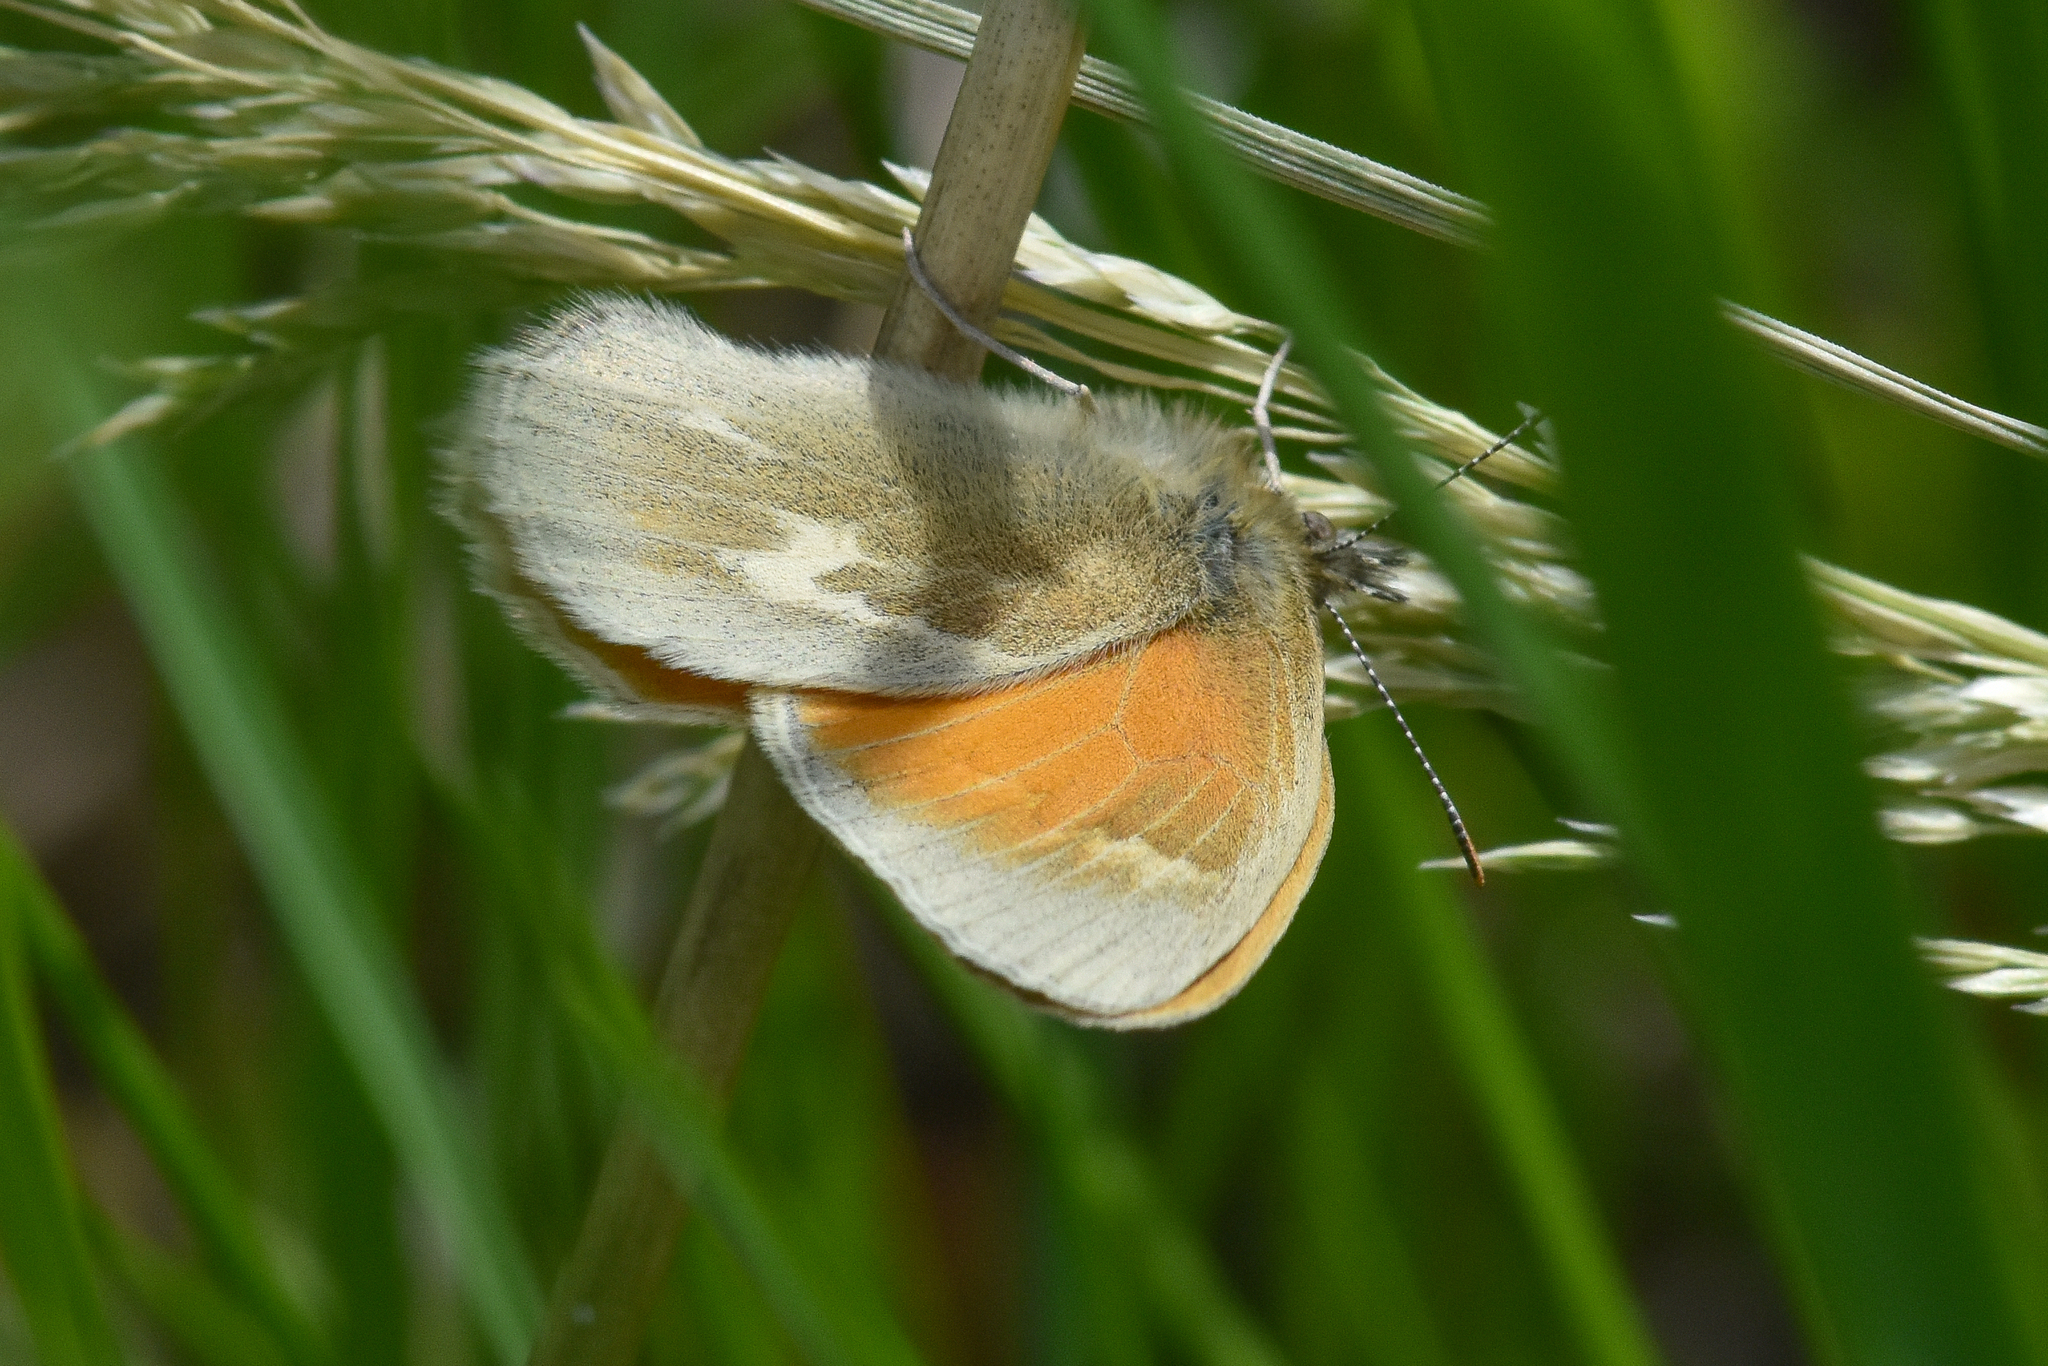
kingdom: Animalia
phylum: Arthropoda
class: Insecta
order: Lepidoptera
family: Nymphalidae
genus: Coenonympha
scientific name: Coenonympha california
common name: Common ringlet
